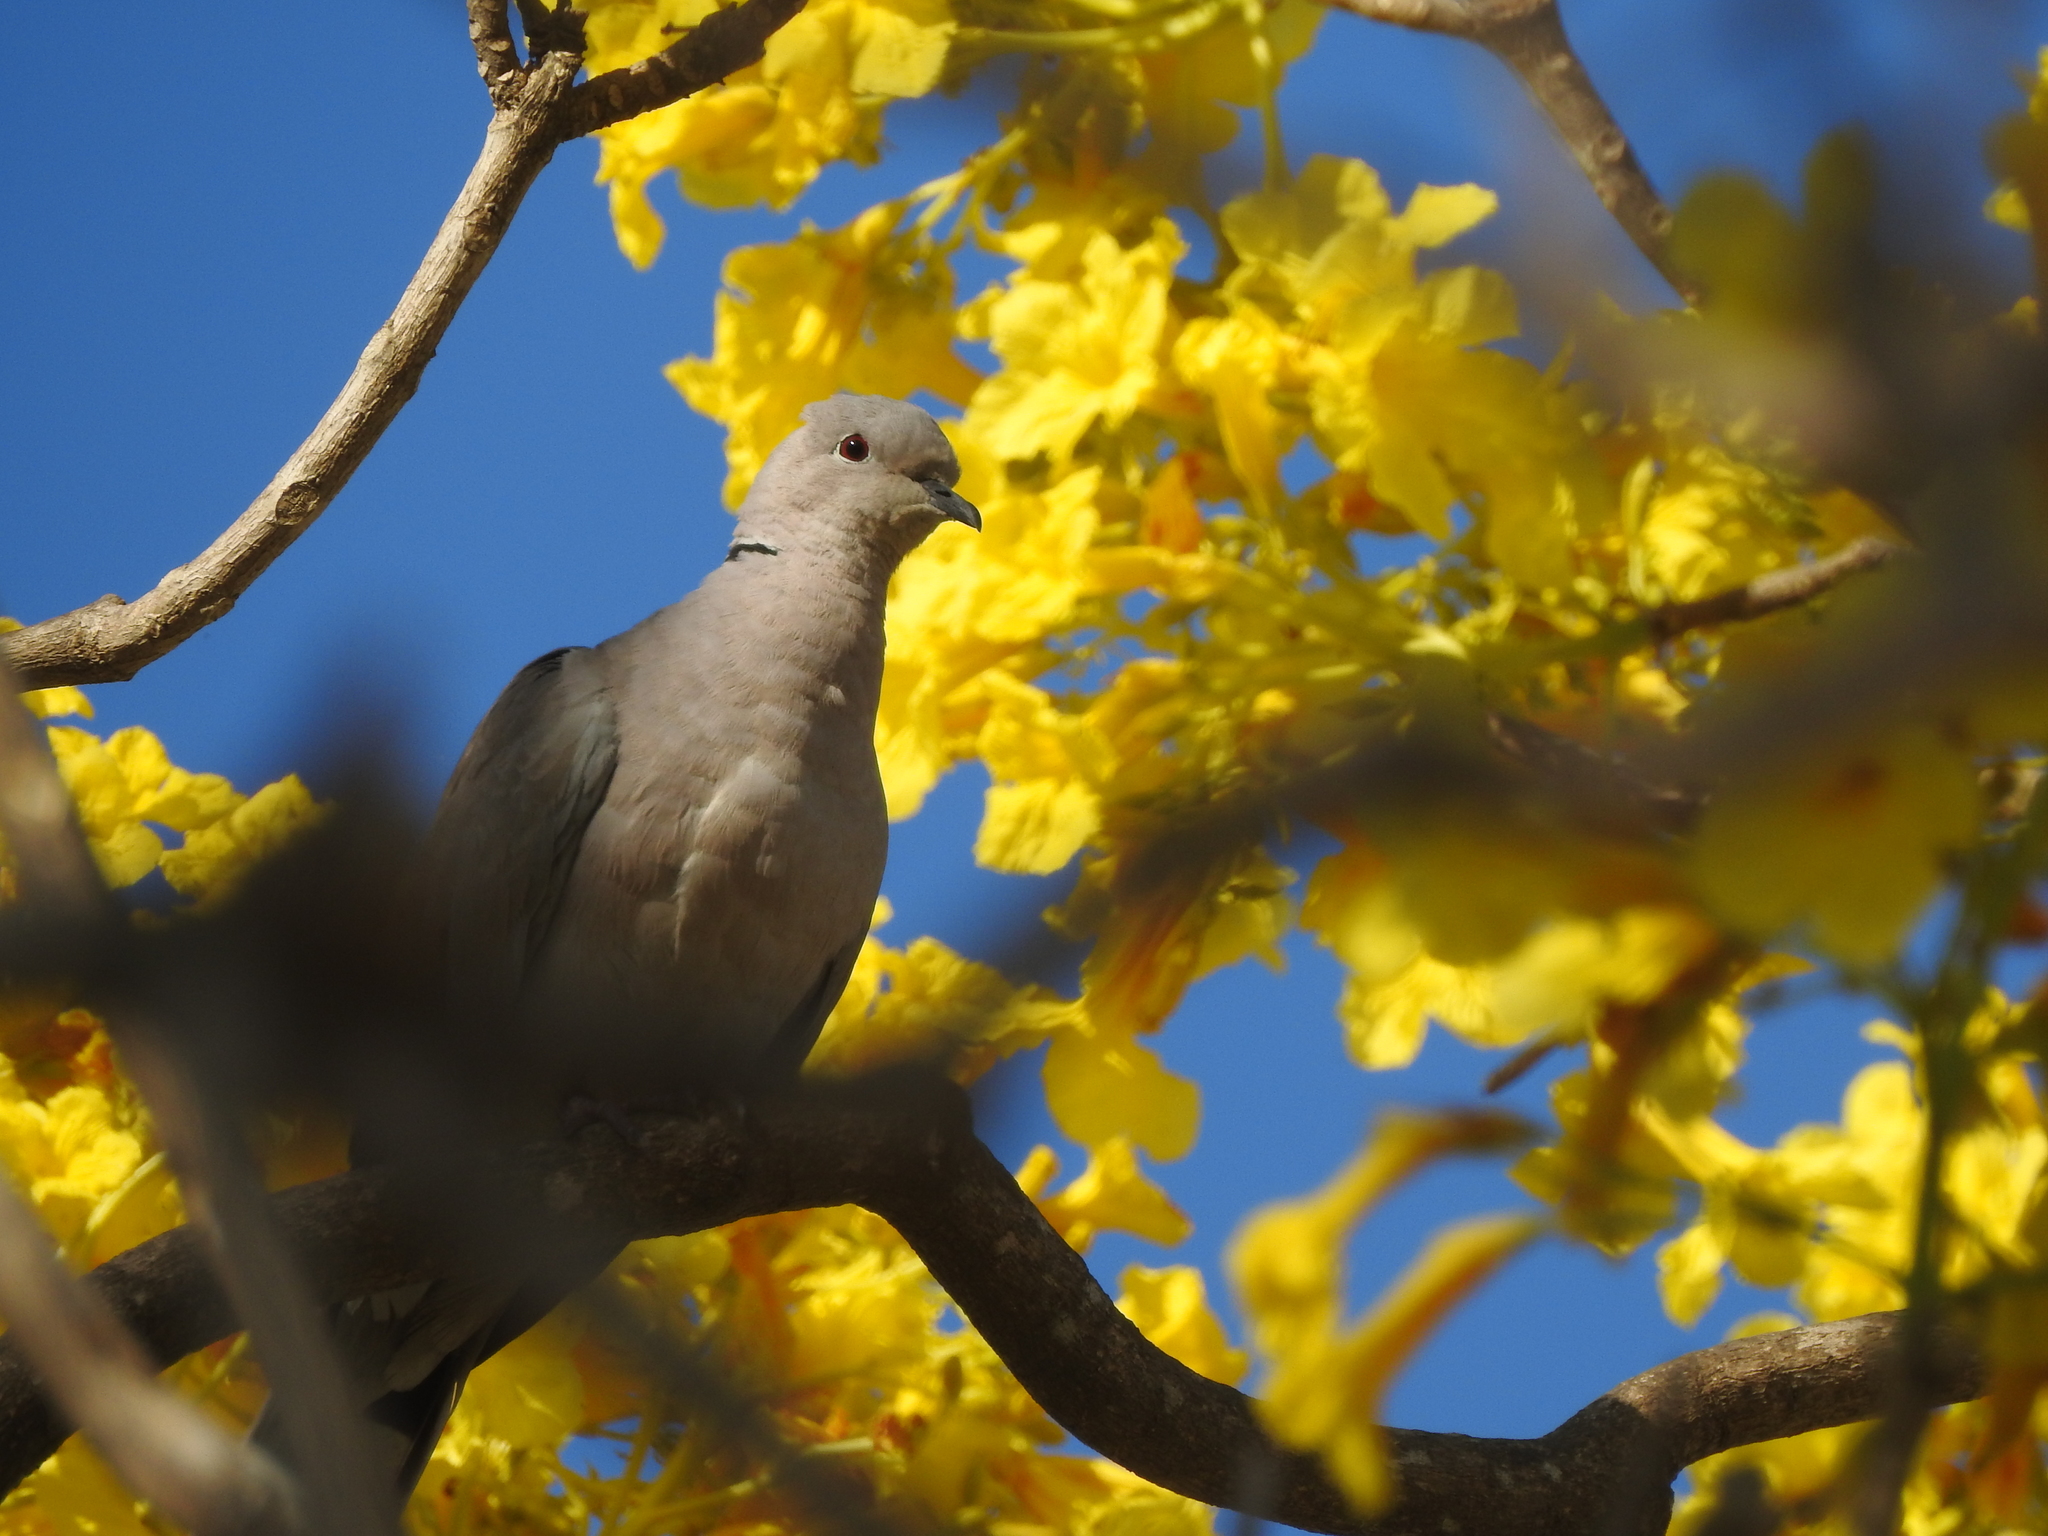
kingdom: Animalia
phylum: Chordata
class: Aves
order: Columbiformes
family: Columbidae
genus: Streptopelia
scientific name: Streptopelia decaocto
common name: Eurasian collared dove
